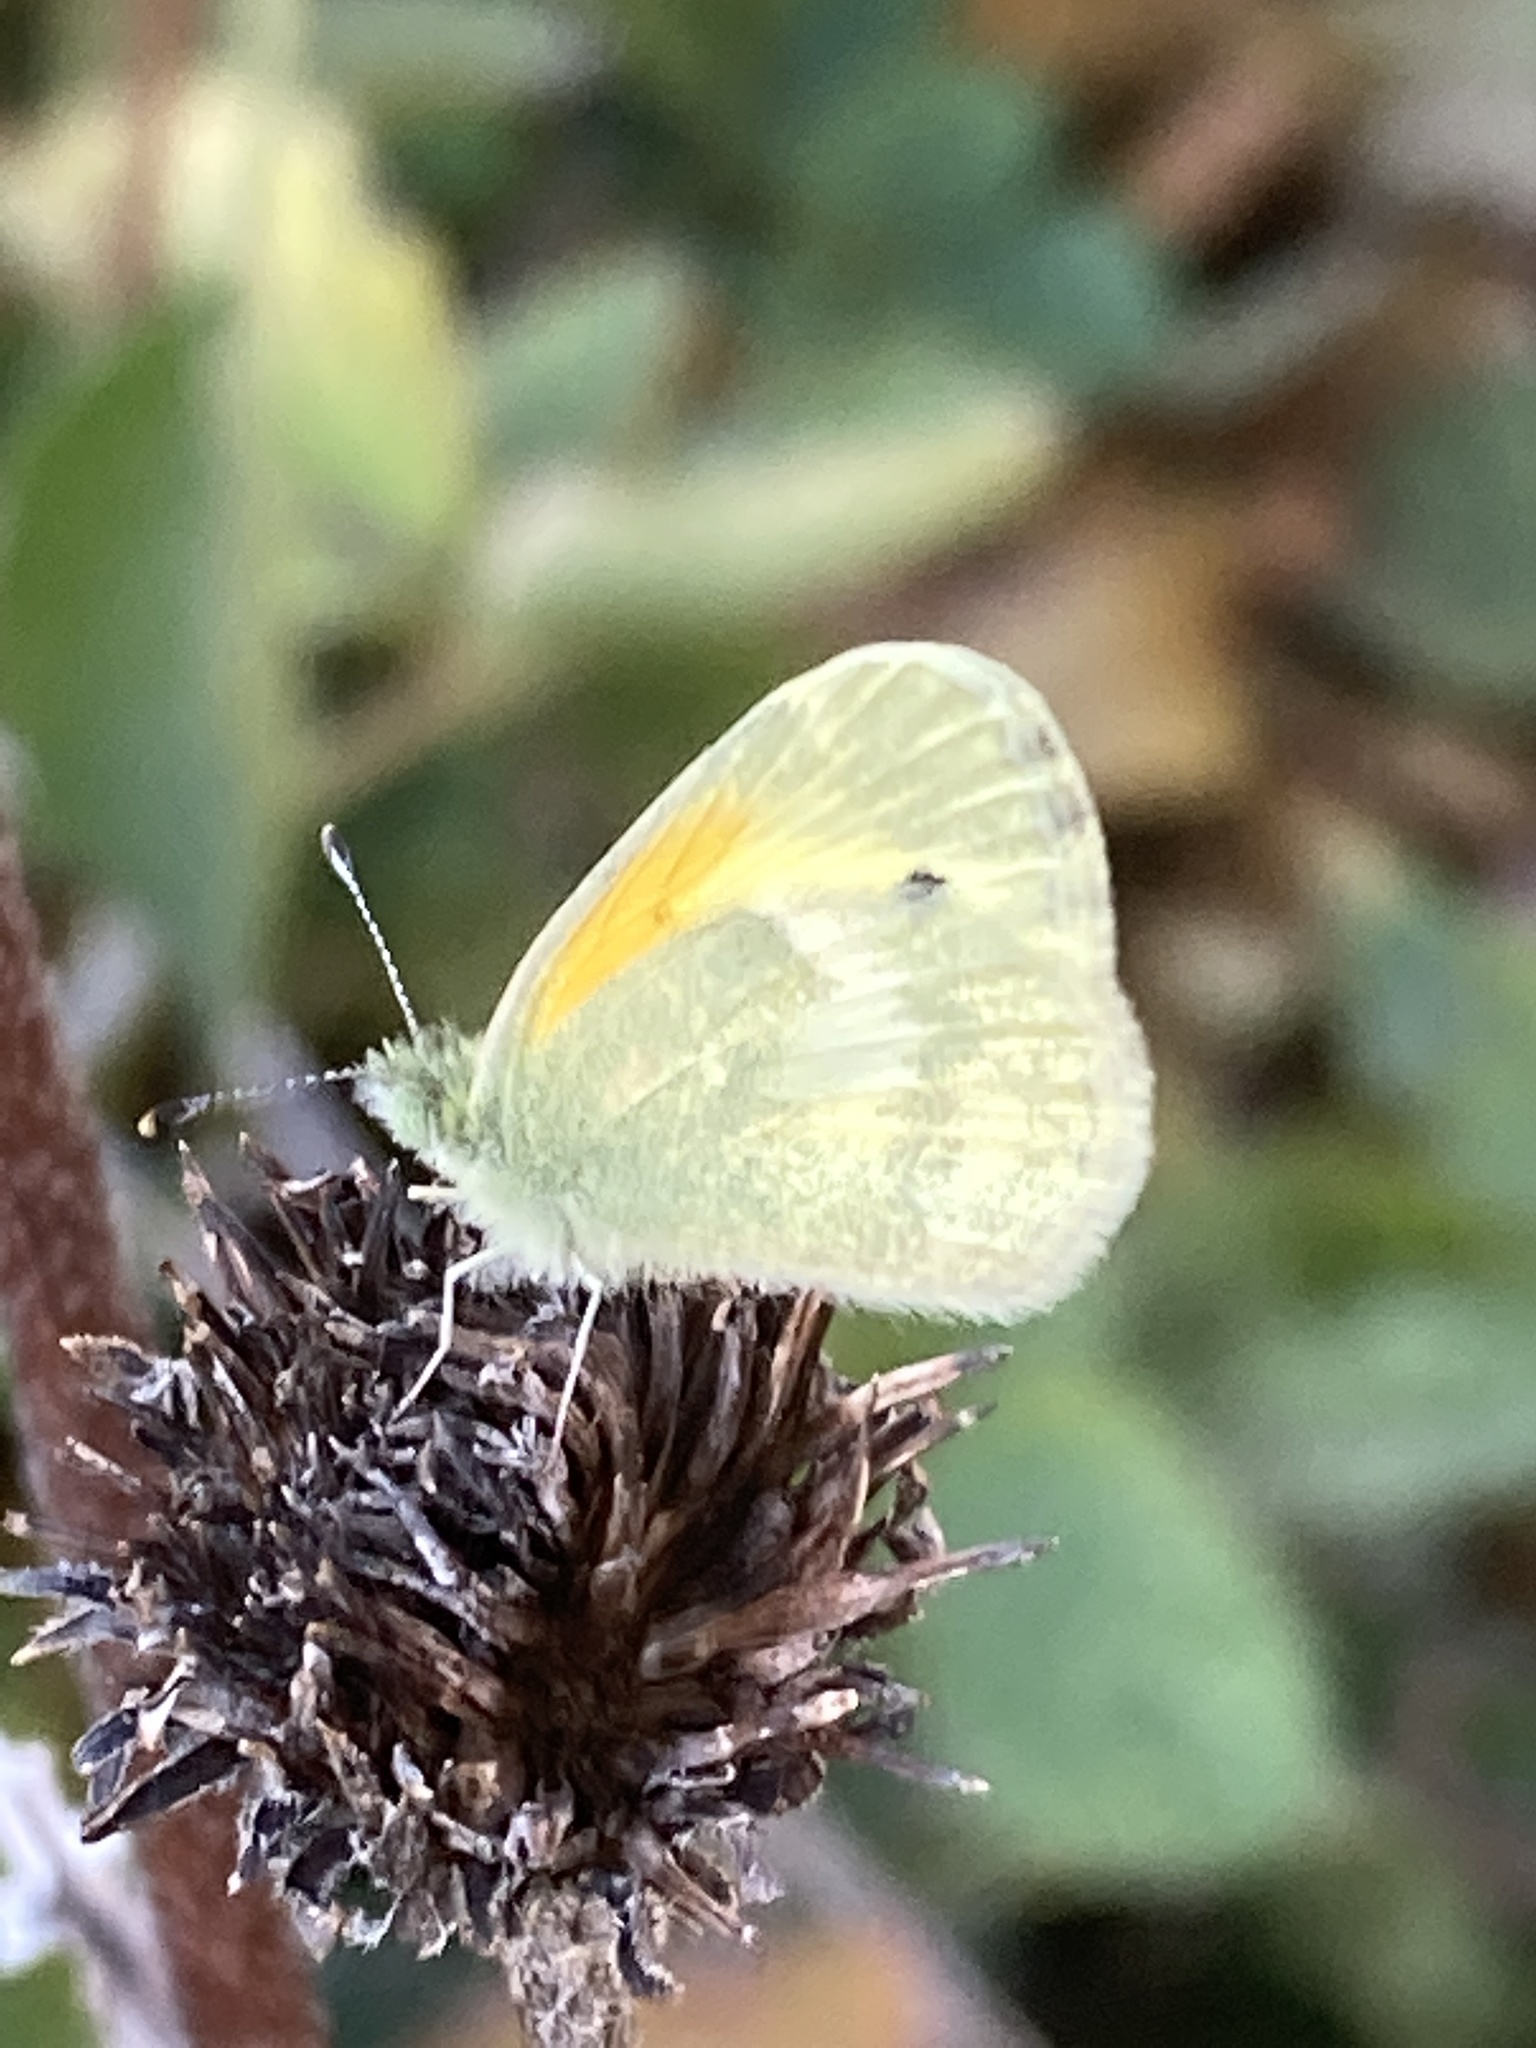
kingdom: Animalia
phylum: Arthropoda
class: Insecta
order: Lepidoptera
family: Pieridae
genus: Nathalis
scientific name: Nathalis iole
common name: Dainty sulphur
